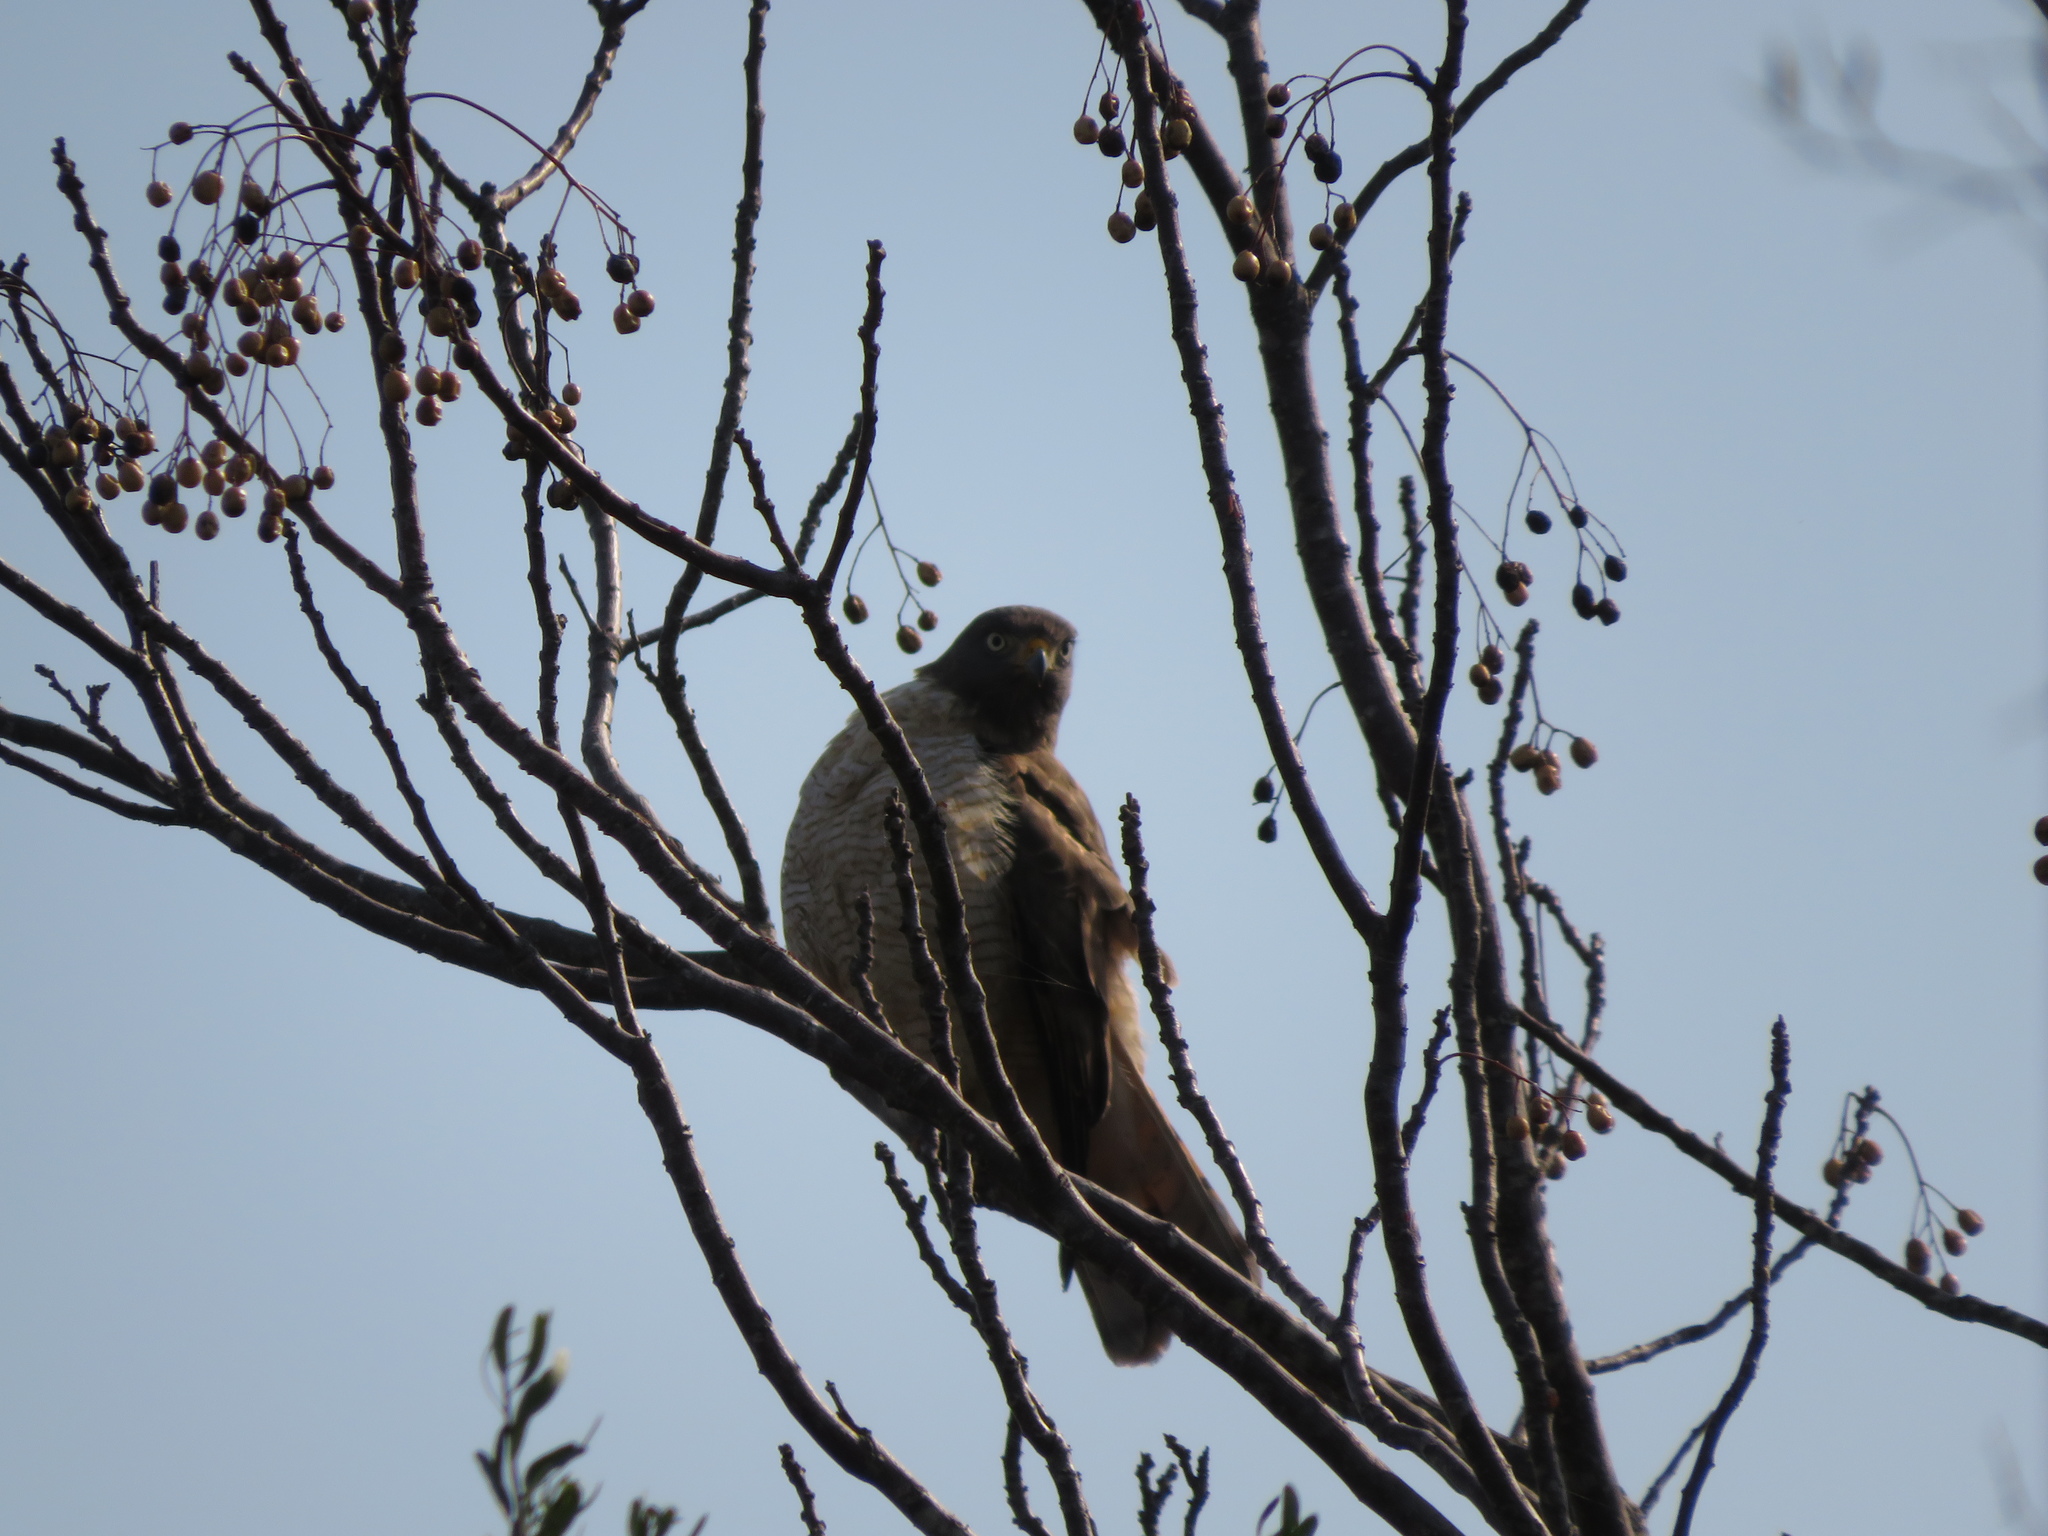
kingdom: Animalia
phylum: Chordata
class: Aves
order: Accipitriformes
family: Accipitridae
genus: Rupornis
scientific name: Rupornis magnirostris
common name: Roadside hawk
